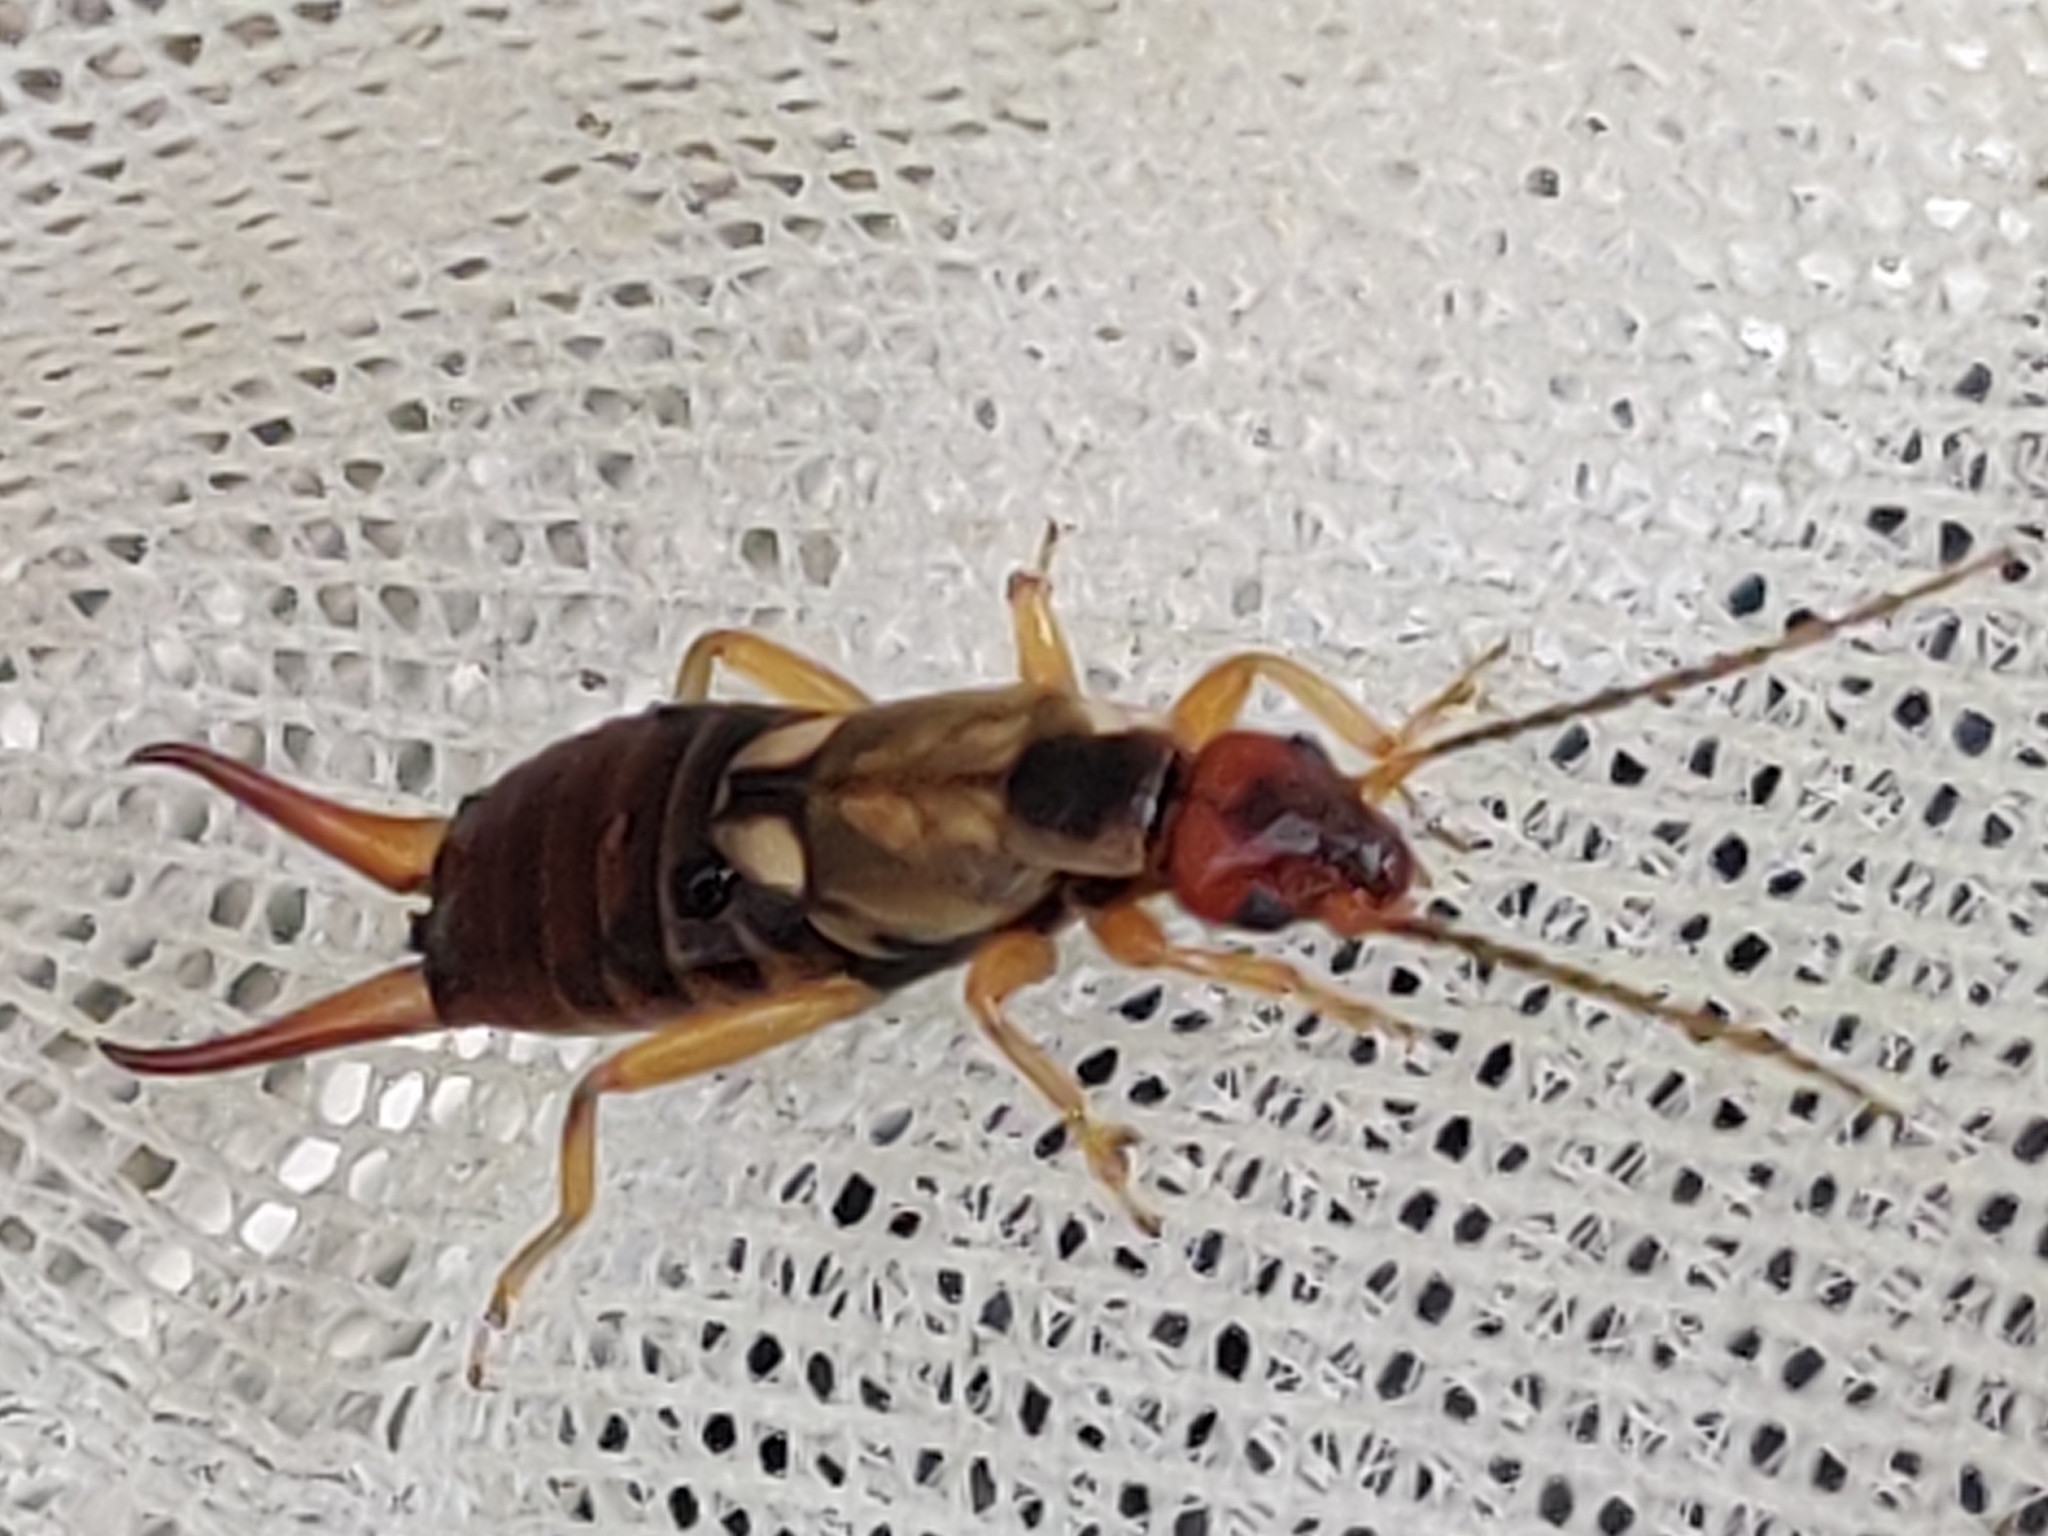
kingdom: Animalia
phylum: Arthropoda
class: Insecta
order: Dermaptera
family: Forficulidae
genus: Forficula
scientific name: Forficula
